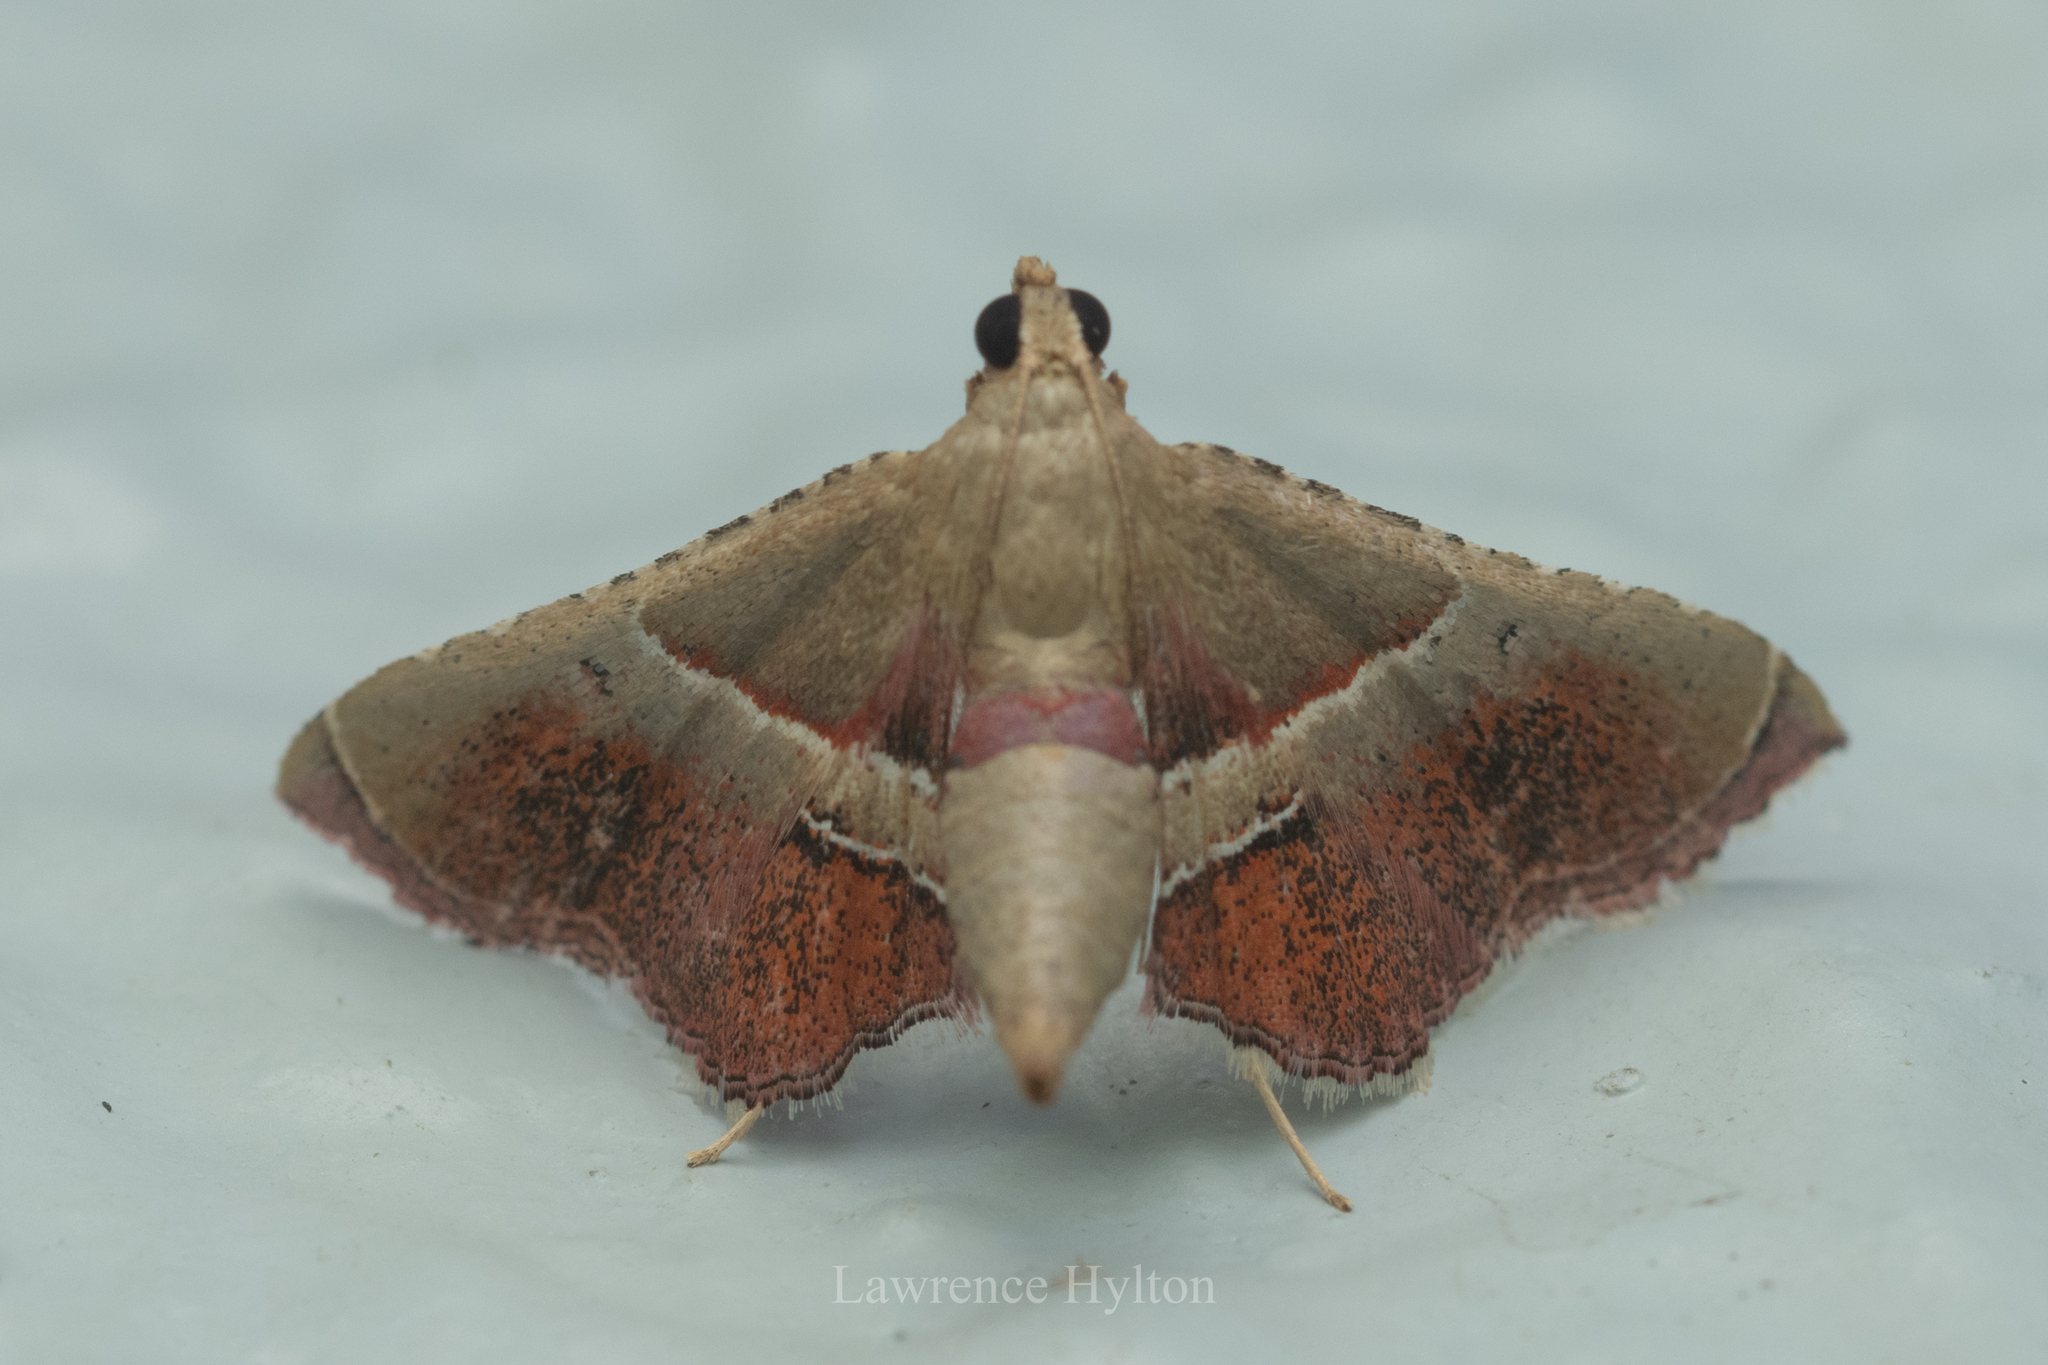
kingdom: Animalia
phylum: Arthropoda
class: Insecta
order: Lepidoptera
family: Pyralidae
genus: Endotricha
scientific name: Endotricha repandalis
